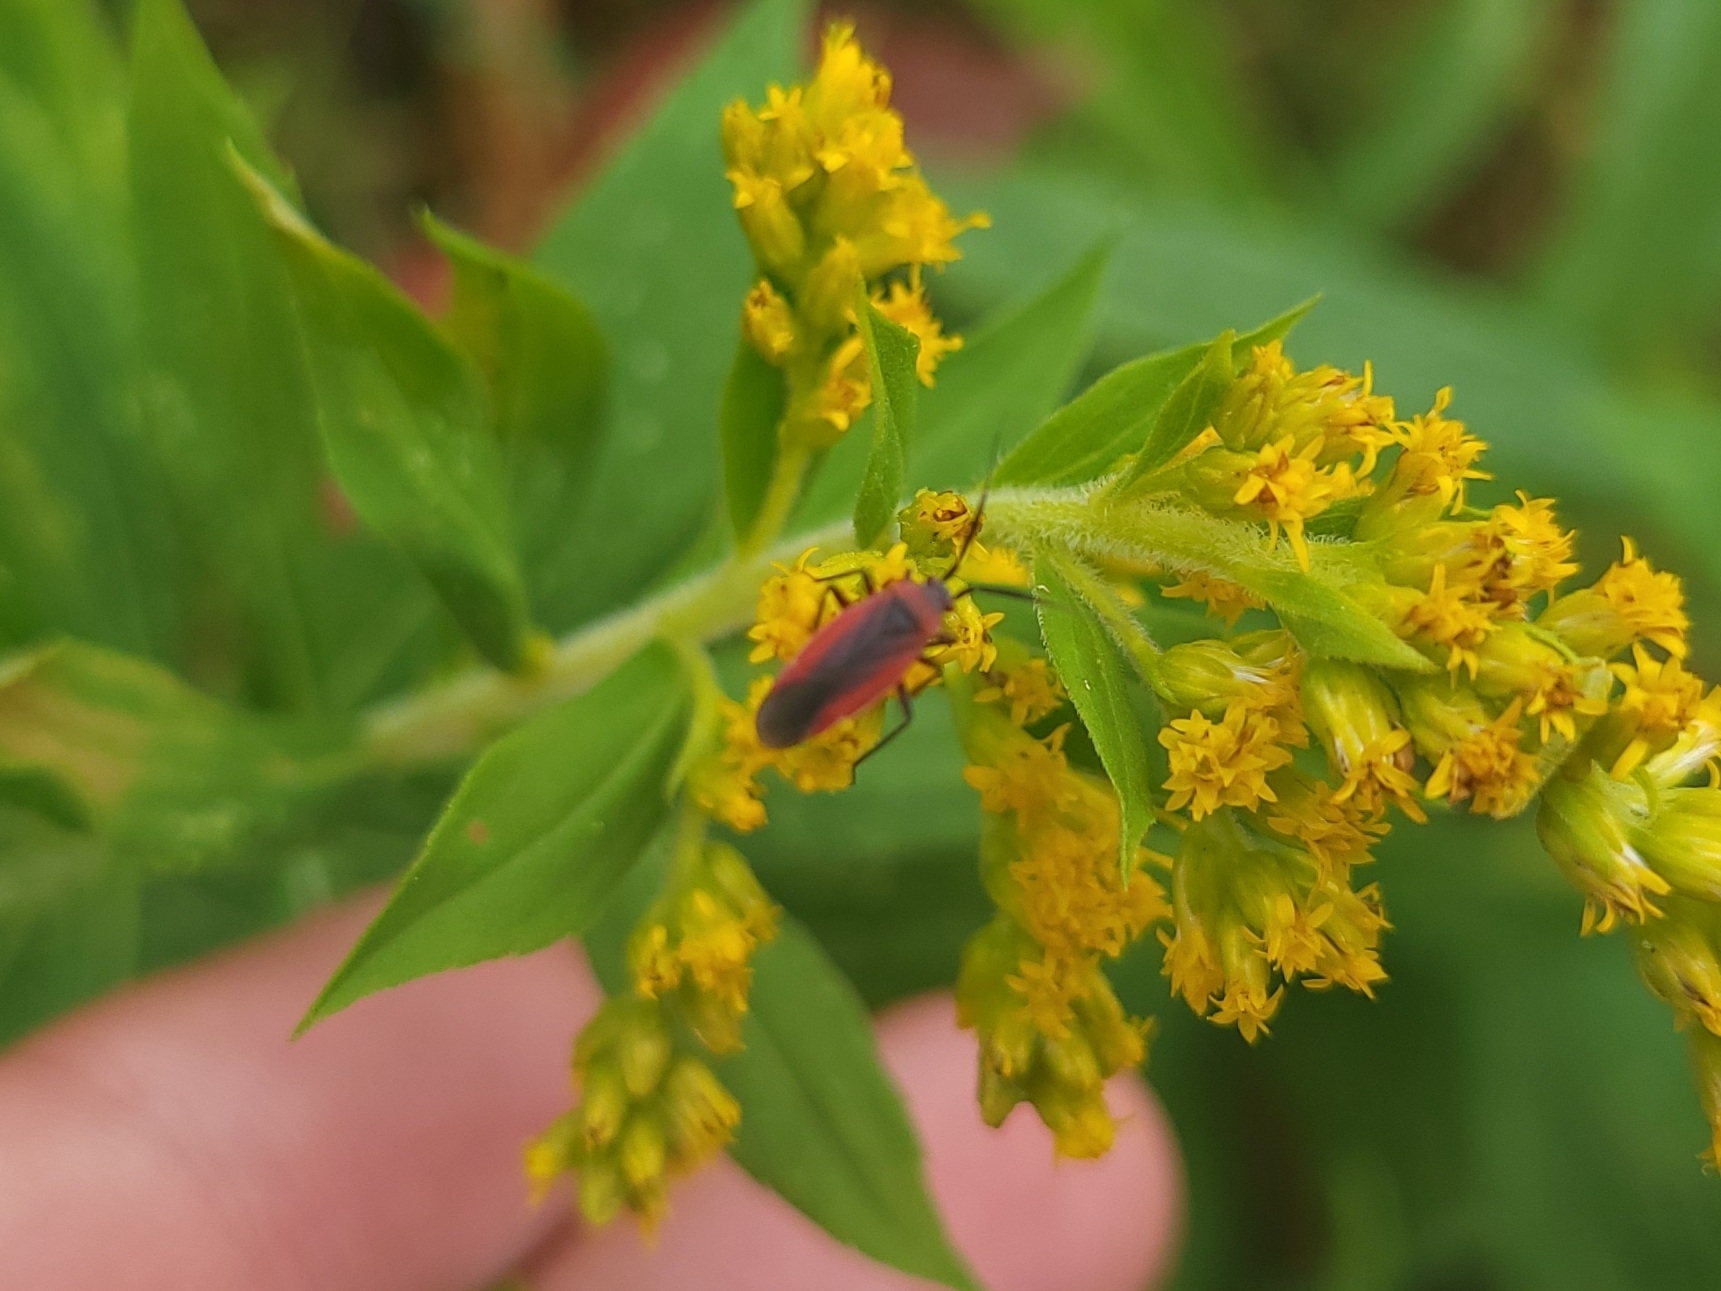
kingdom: Animalia
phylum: Arthropoda
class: Insecta
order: Hemiptera
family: Miridae
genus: Lopidea
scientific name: Lopidea instabilis
